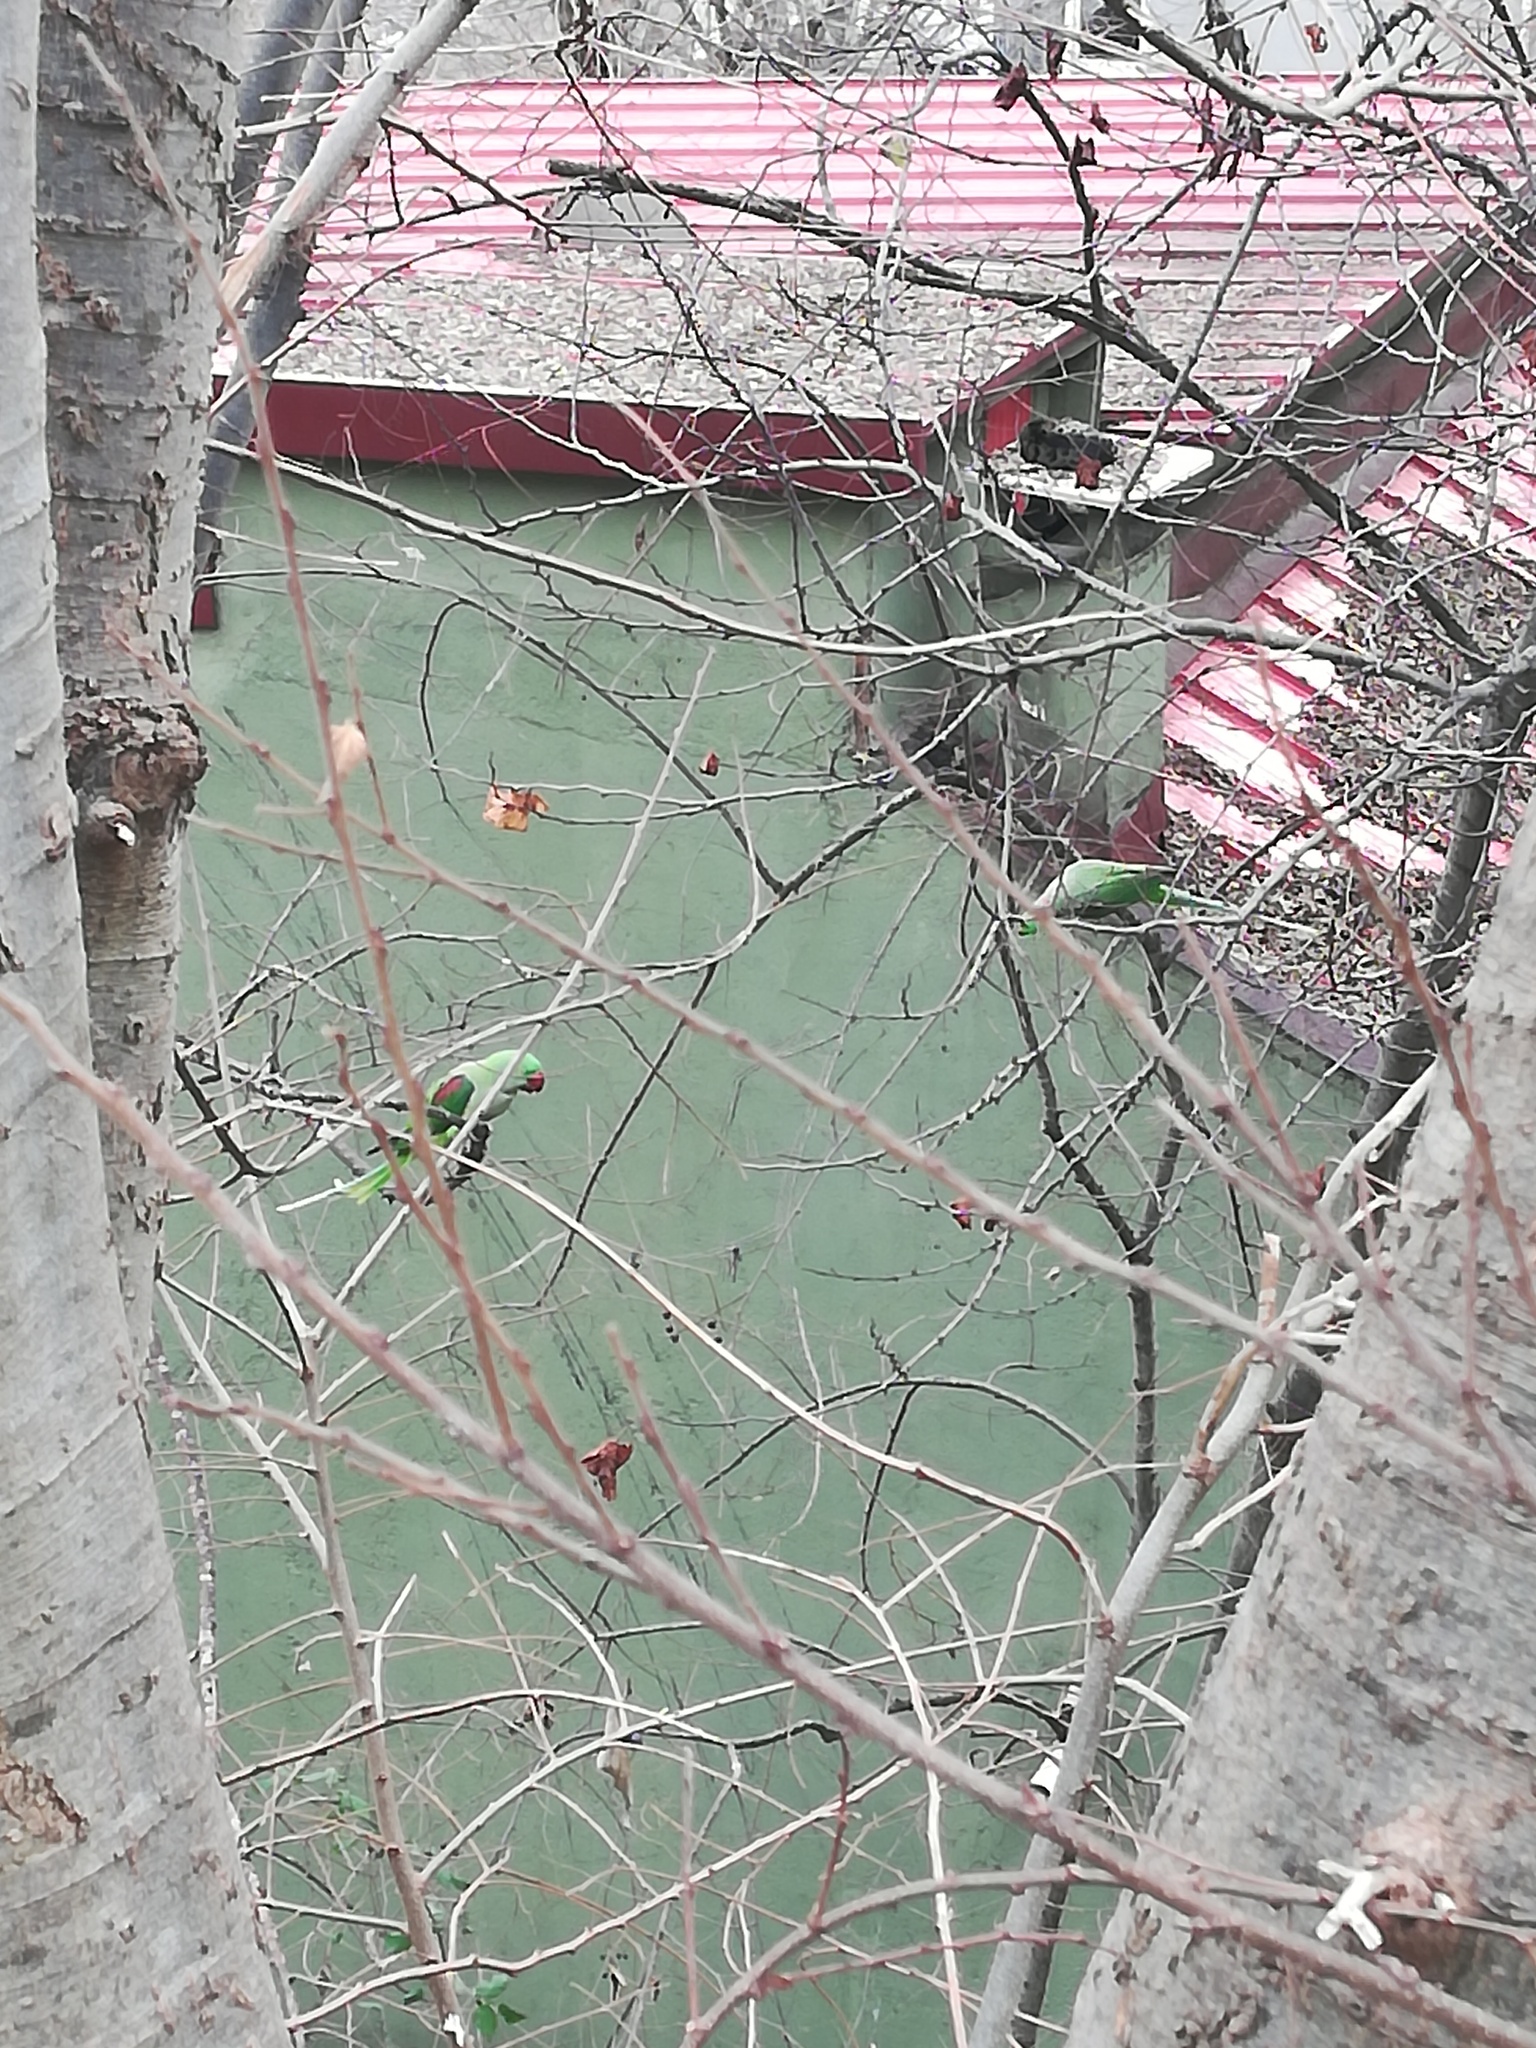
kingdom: Animalia
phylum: Chordata
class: Aves
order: Psittaciformes
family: Psittacidae
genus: Psittacula
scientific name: Psittacula eupatria
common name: Alexandrine parakeet
